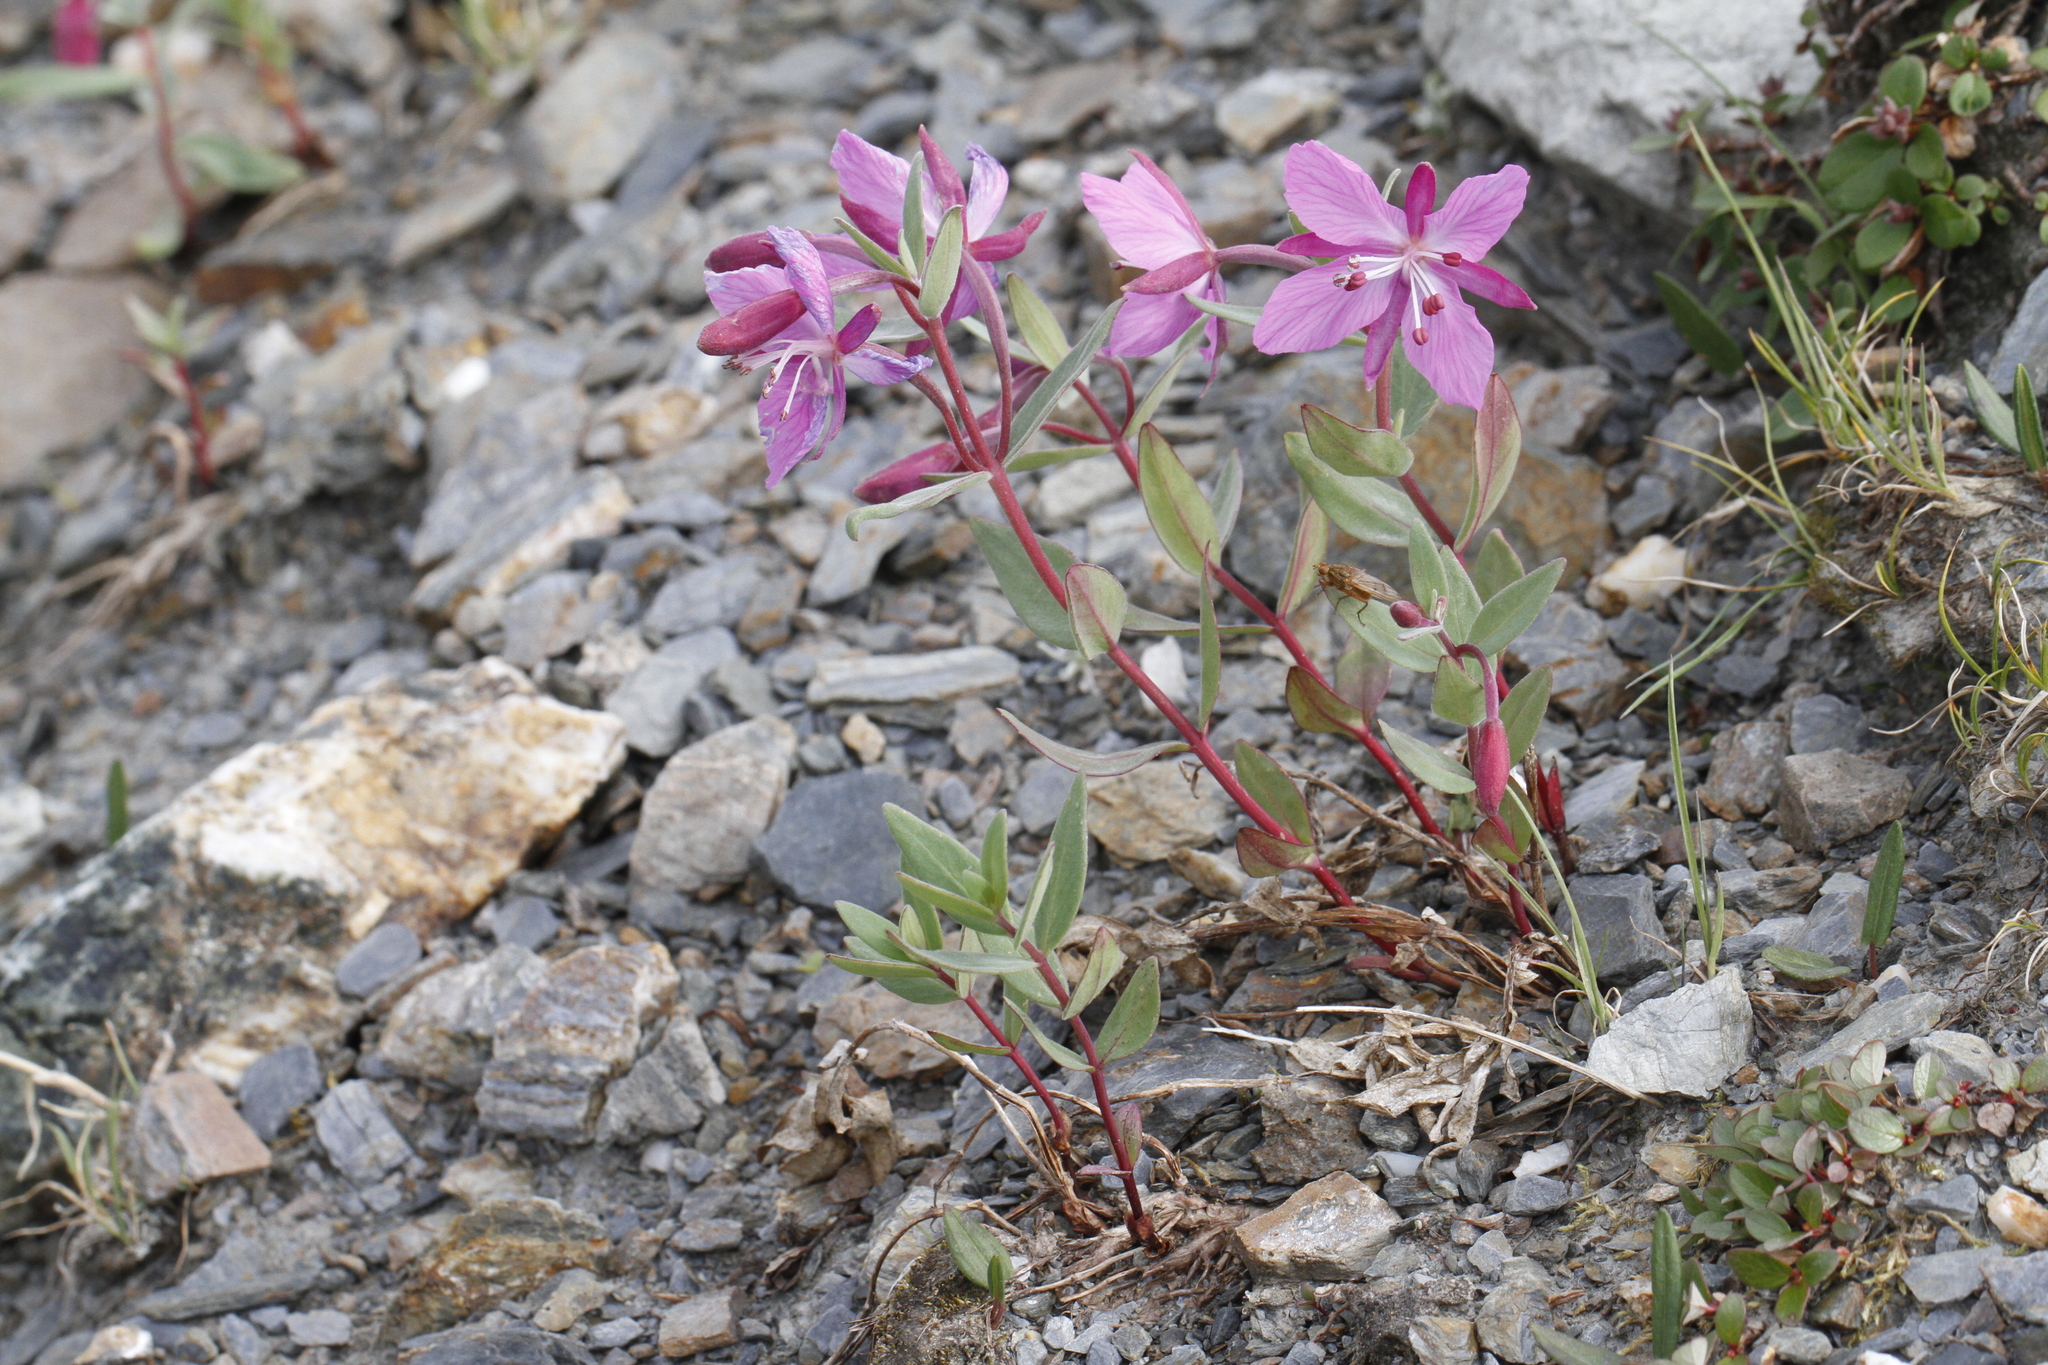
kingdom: Plantae
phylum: Tracheophyta
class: Magnoliopsida
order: Myrtales
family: Onagraceae
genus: Chamaenerion
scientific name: Chamaenerion latifolium
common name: Dwarf fireweed
